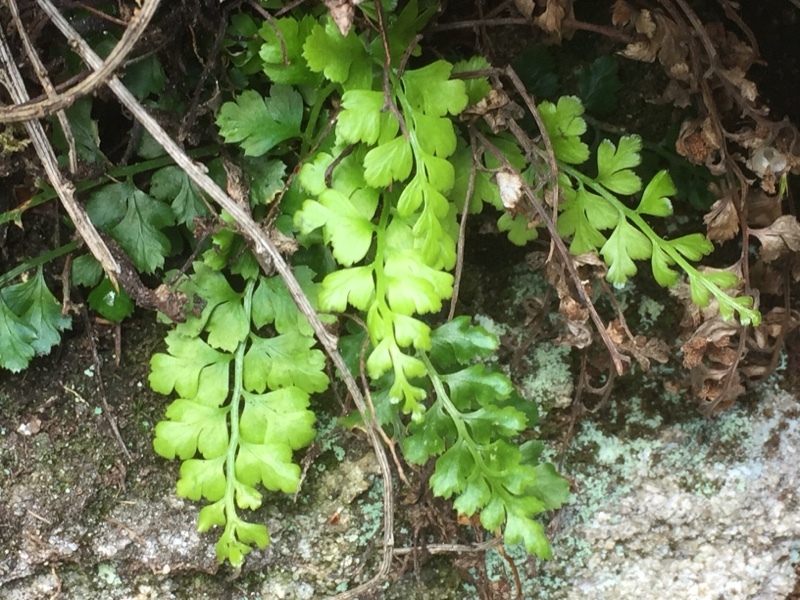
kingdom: Plantae
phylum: Tracheophyta
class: Polypodiopsida
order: Polypodiales
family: Aspleniaceae
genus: Asplenium
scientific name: Asplenium ruta-muraria
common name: Wall-rue
